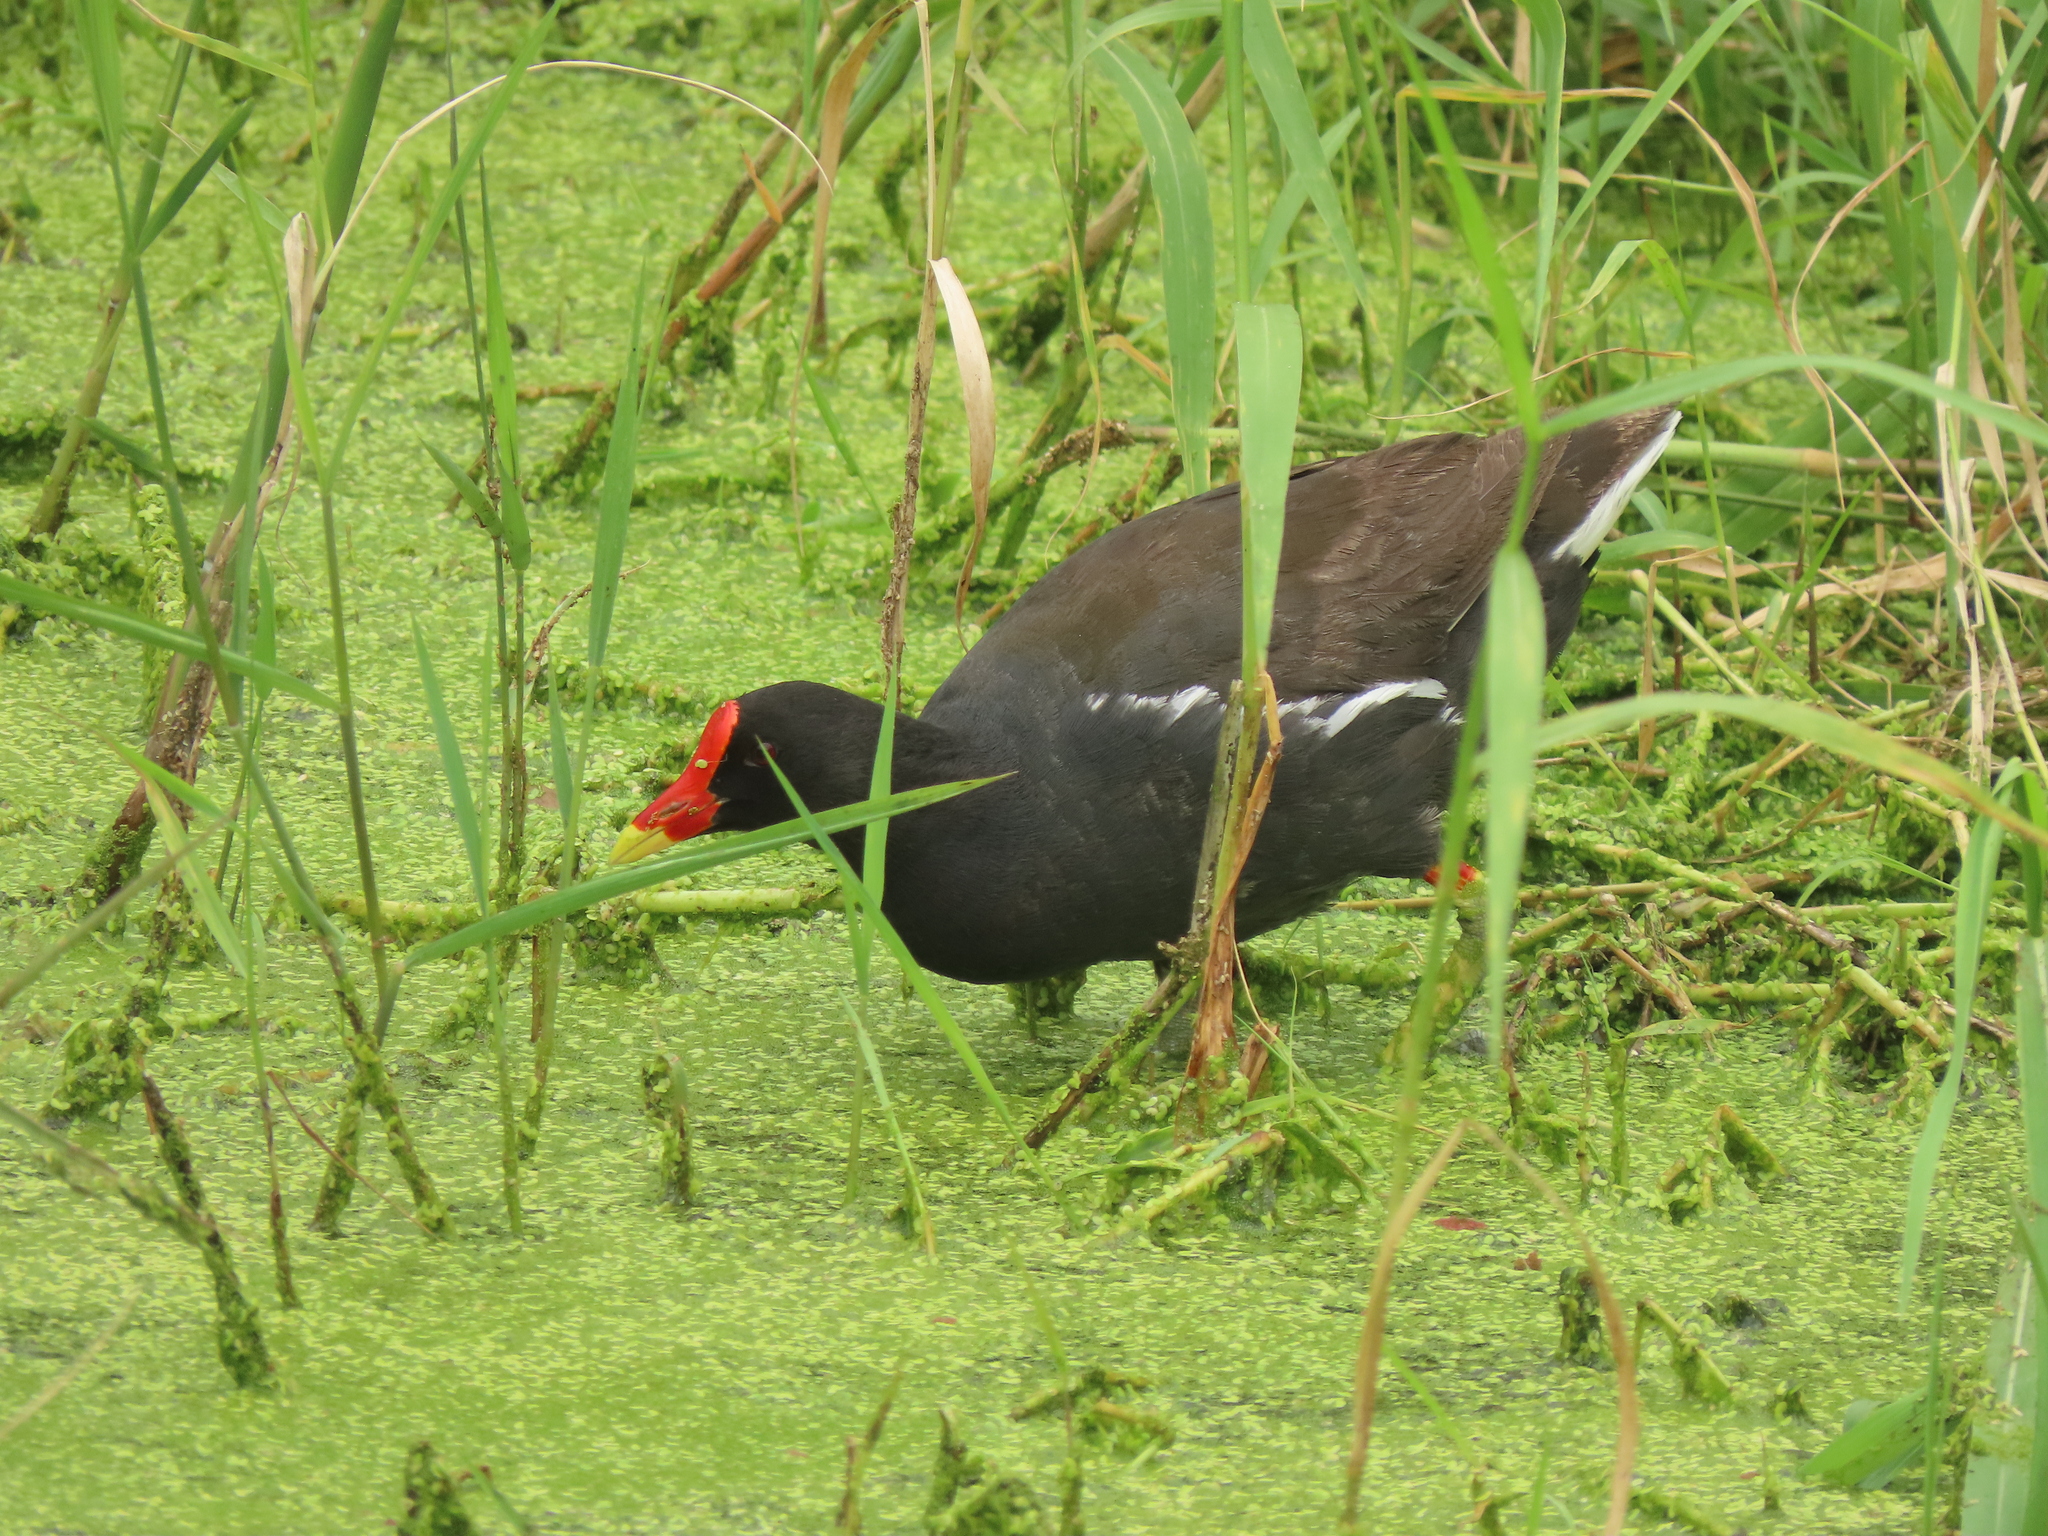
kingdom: Animalia
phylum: Chordata
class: Aves
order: Gruiformes
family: Rallidae
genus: Gallinula
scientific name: Gallinula chloropus
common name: Common moorhen
